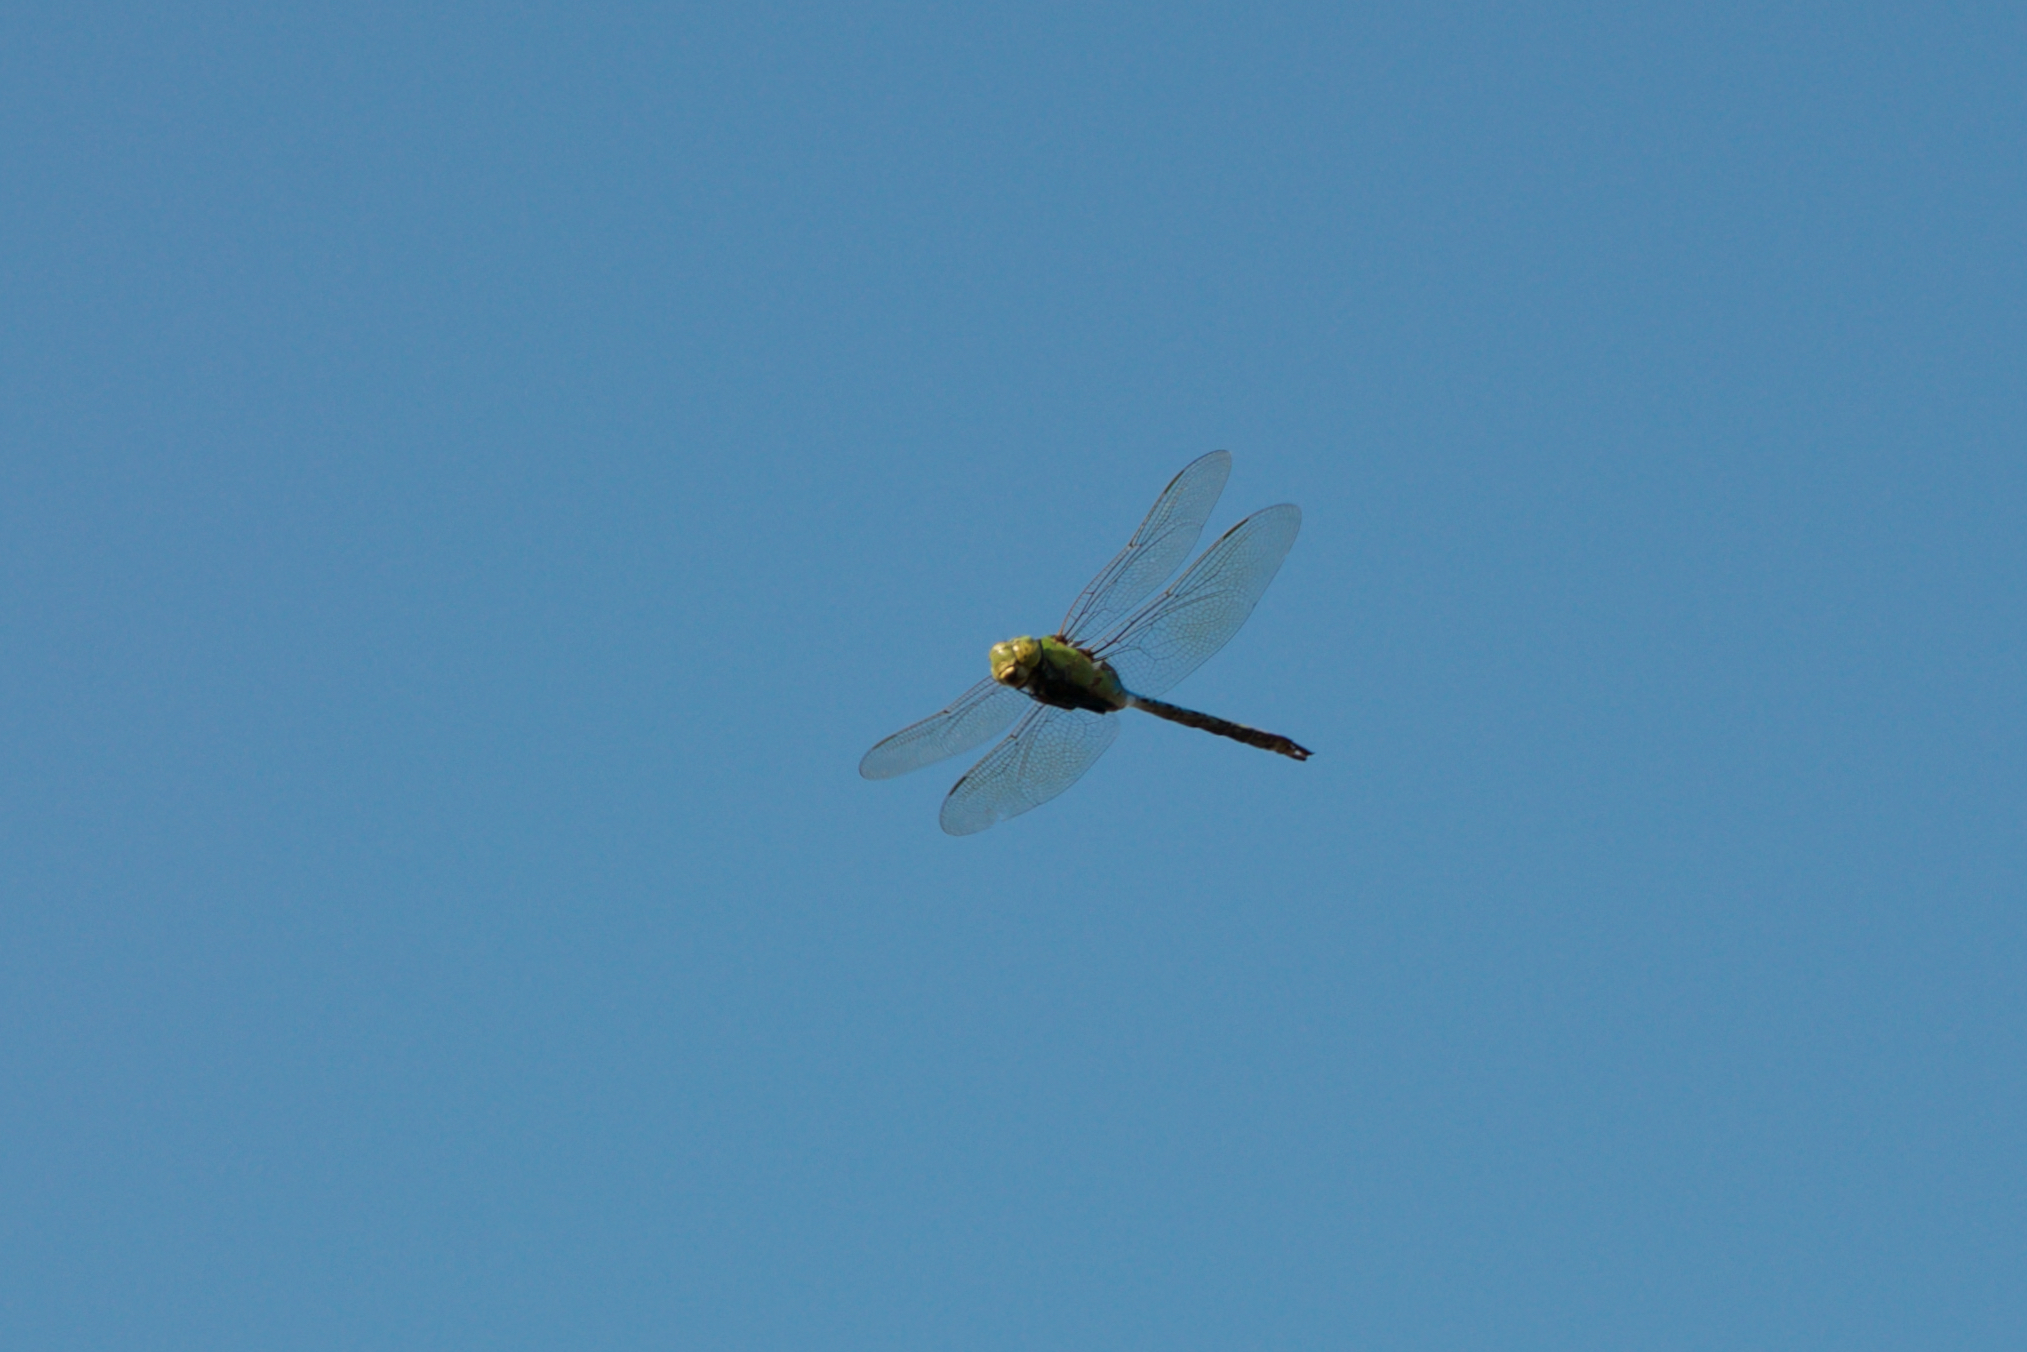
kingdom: Animalia
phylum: Arthropoda
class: Insecta
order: Odonata
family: Aeshnidae
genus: Anax
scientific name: Anax junius
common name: Common green darner
